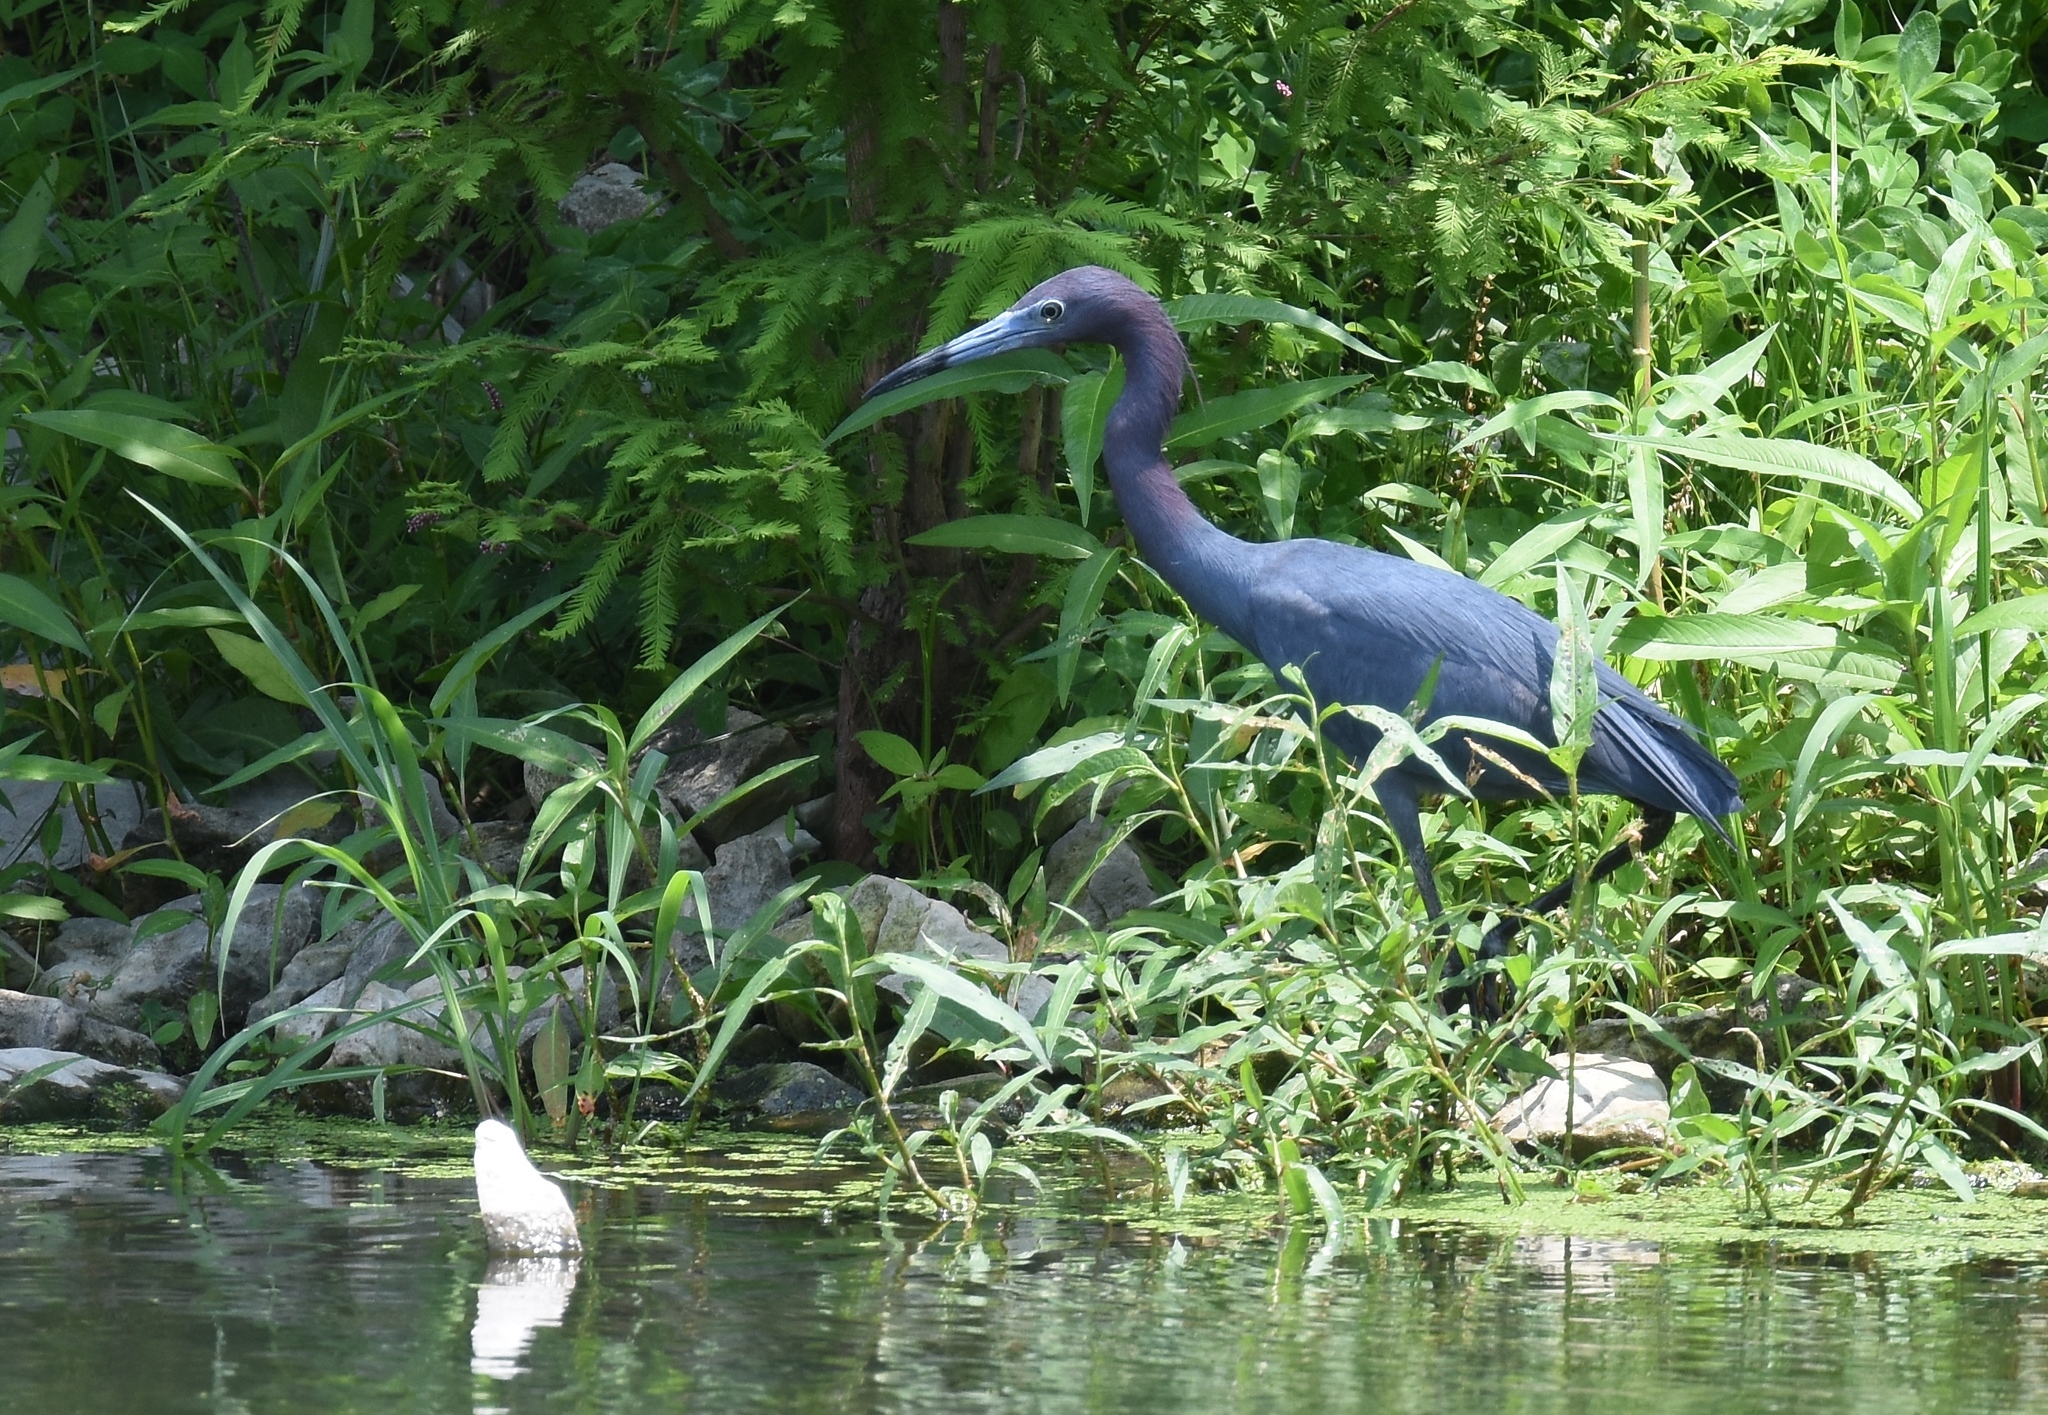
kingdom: Animalia
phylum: Chordata
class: Aves
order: Pelecaniformes
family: Ardeidae
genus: Egretta
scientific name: Egretta caerulea
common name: Little blue heron
